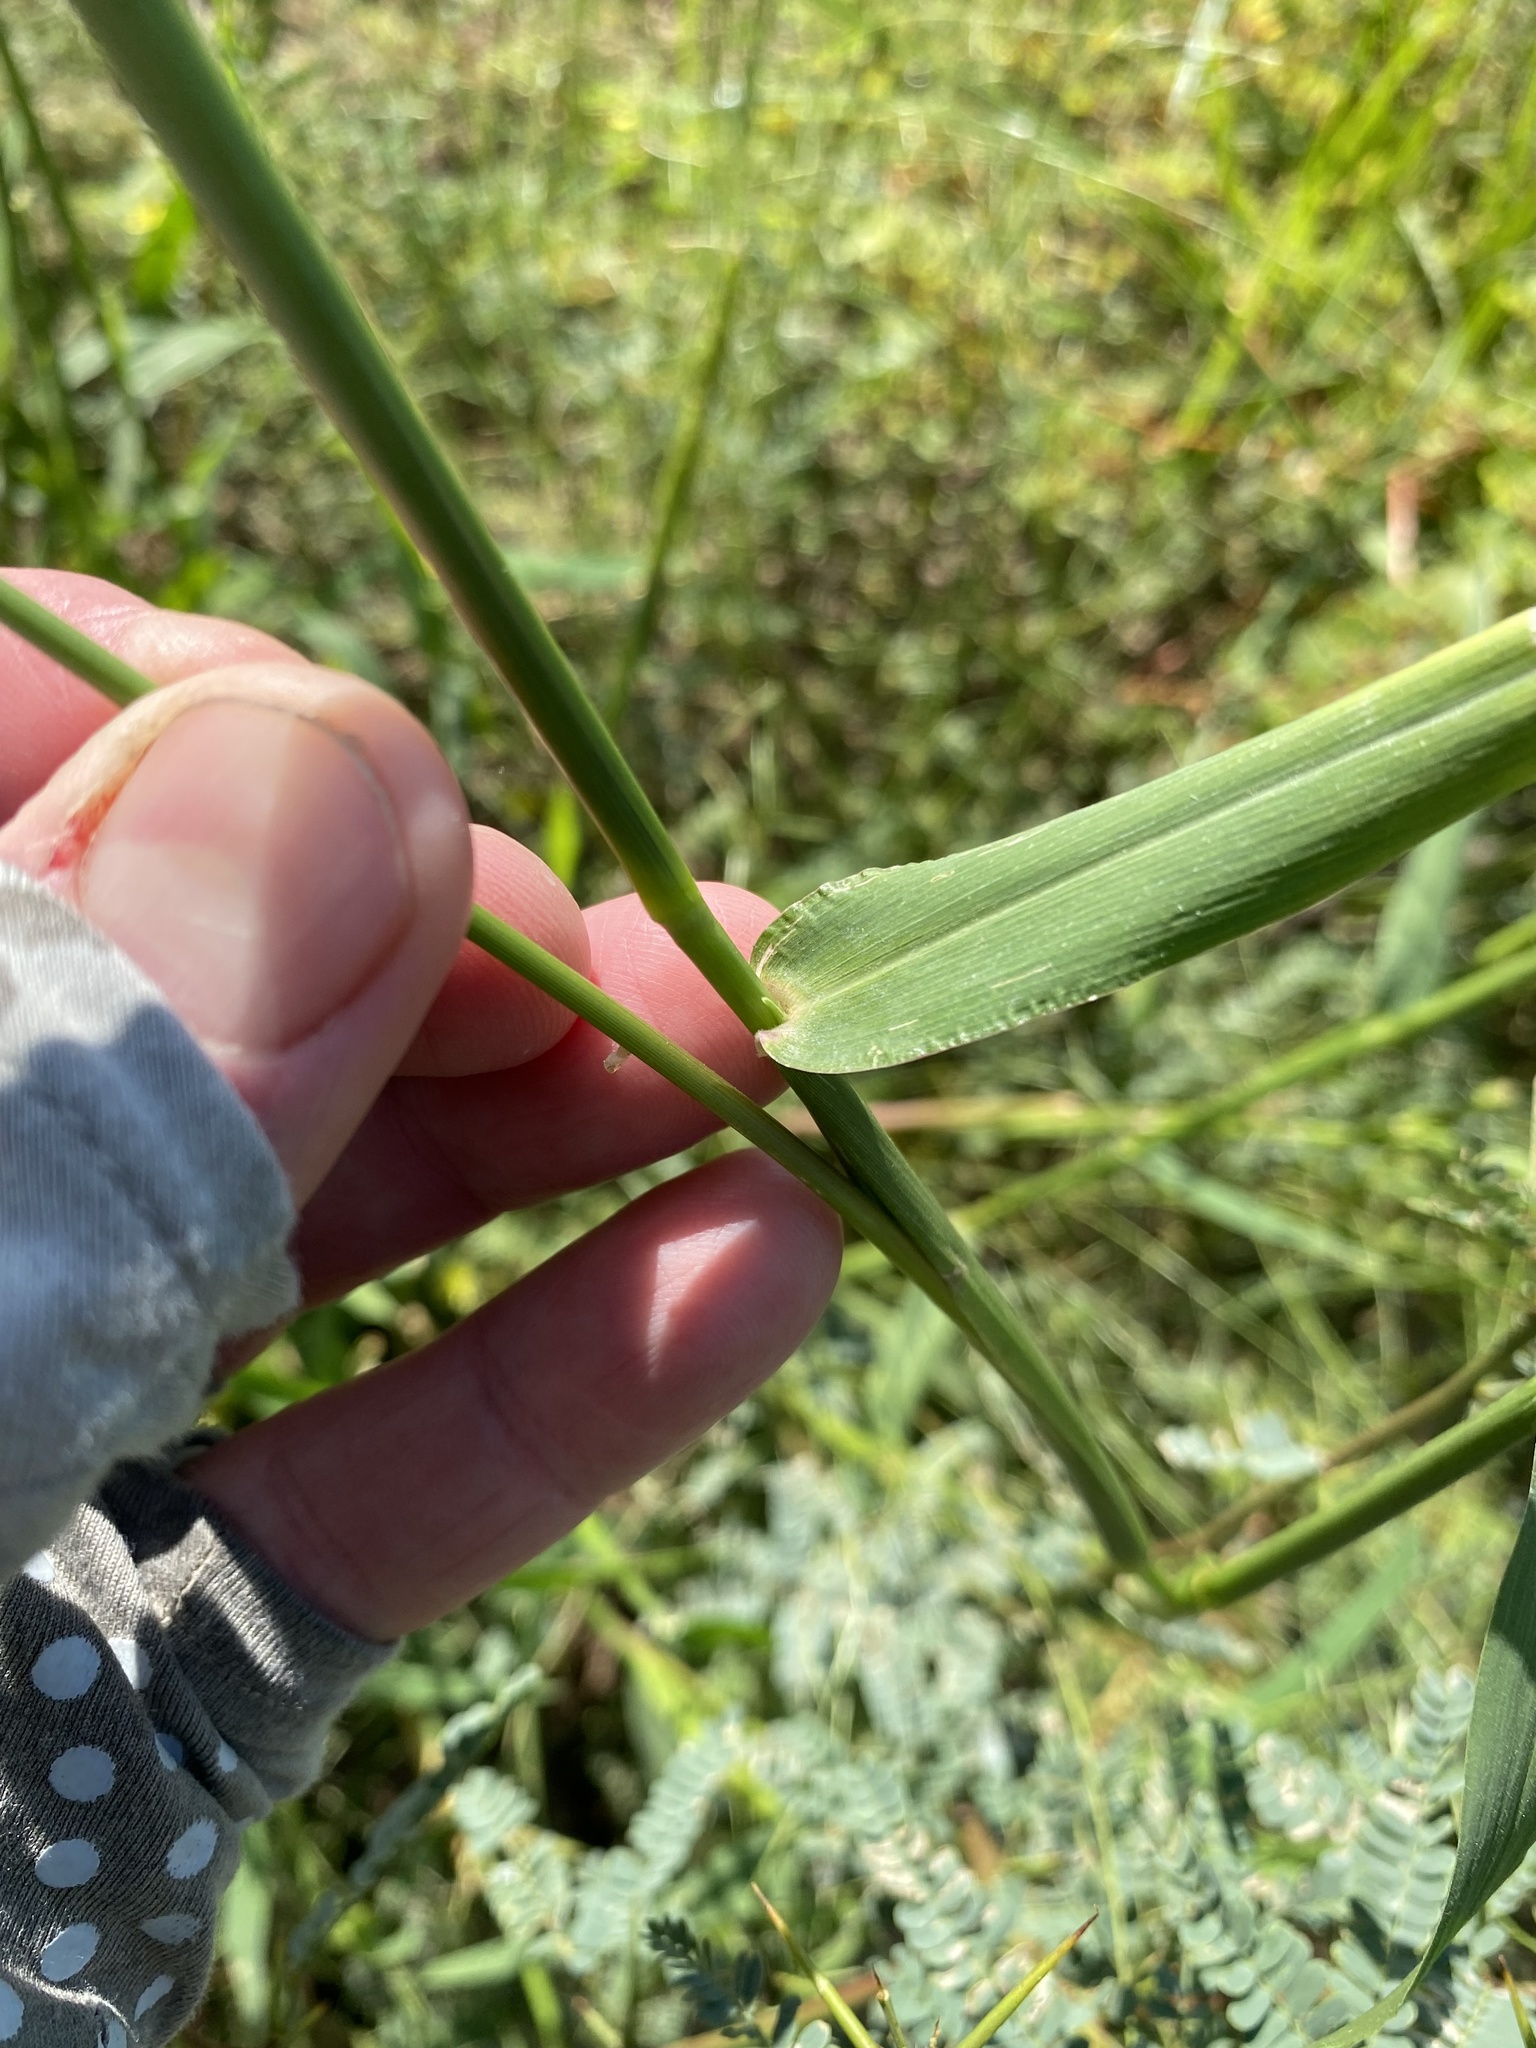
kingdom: Plantae
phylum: Tracheophyta
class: Liliopsida
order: Poales
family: Poaceae
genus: Eriochloa
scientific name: Eriochloa acuminata
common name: Southwestern cup grass
